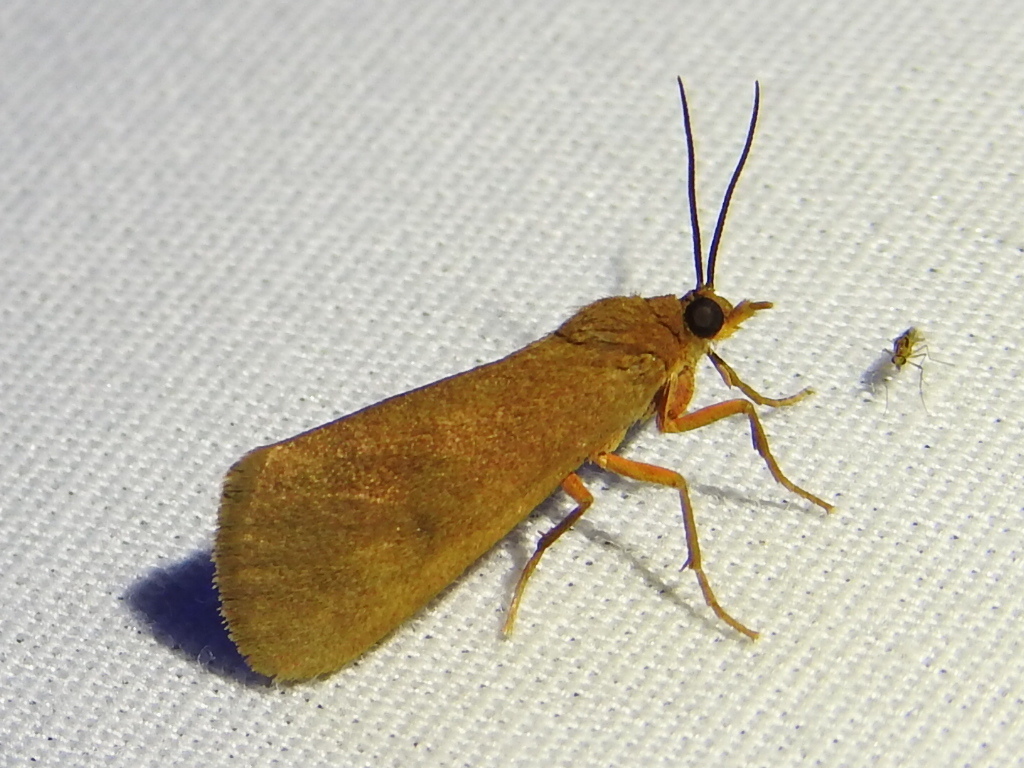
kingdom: Animalia
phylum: Arthropoda
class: Insecta
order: Lepidoptera
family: Erebidae
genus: Virbia
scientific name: Virbia aurantiaca
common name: Orange virbia moth
